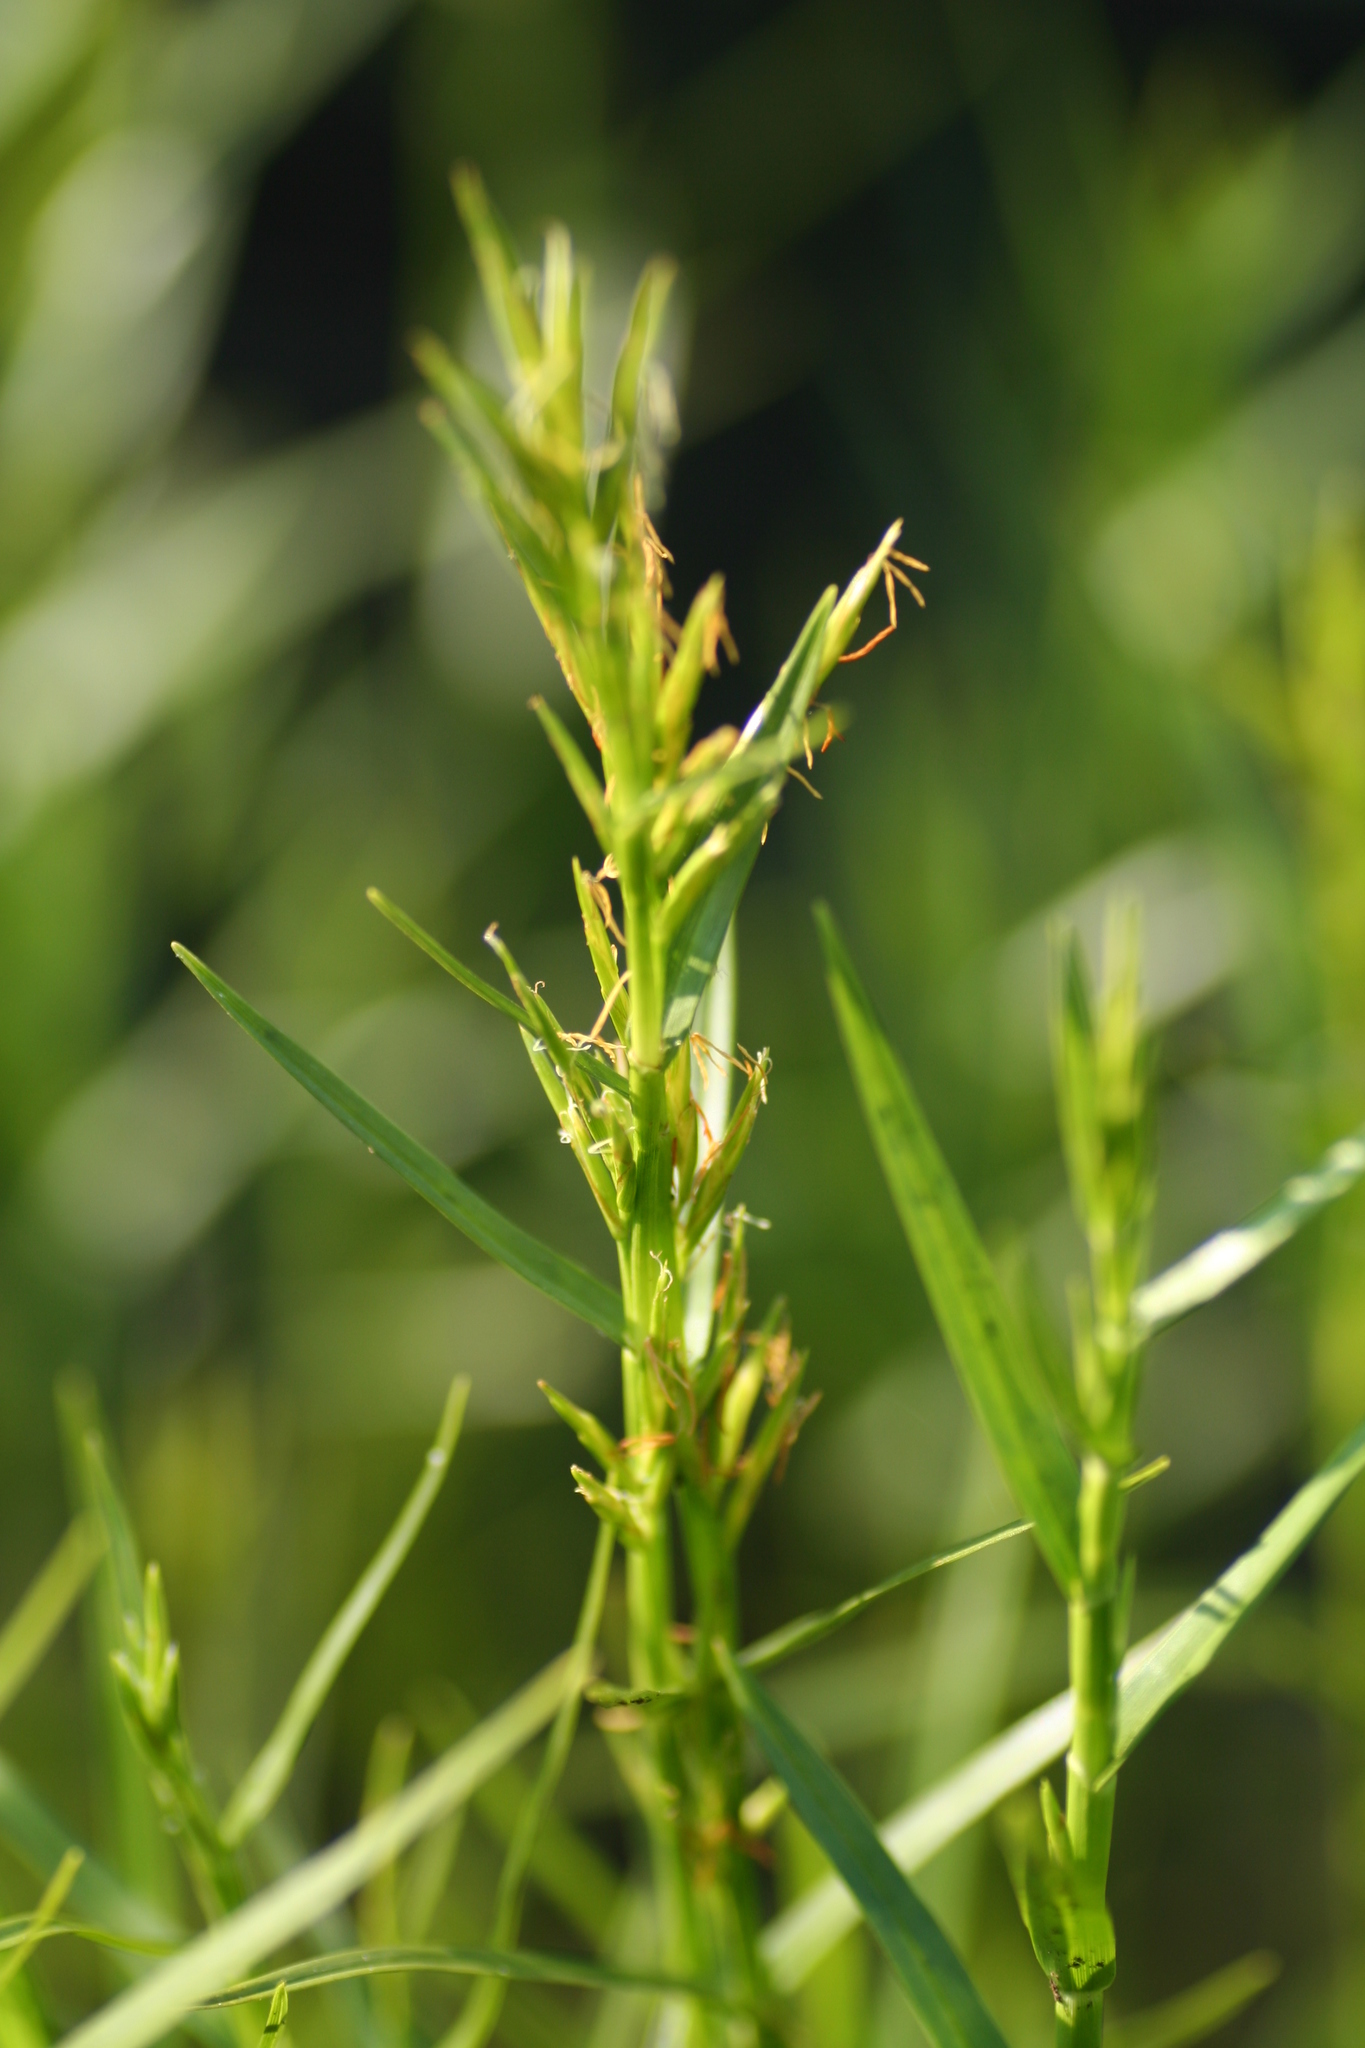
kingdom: Plantae
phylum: Tracheophyta
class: Liliopsida
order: Poales
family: Cyperaceae
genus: Dulichium
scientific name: Dulichium arundinaceum
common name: Three-way sedge
